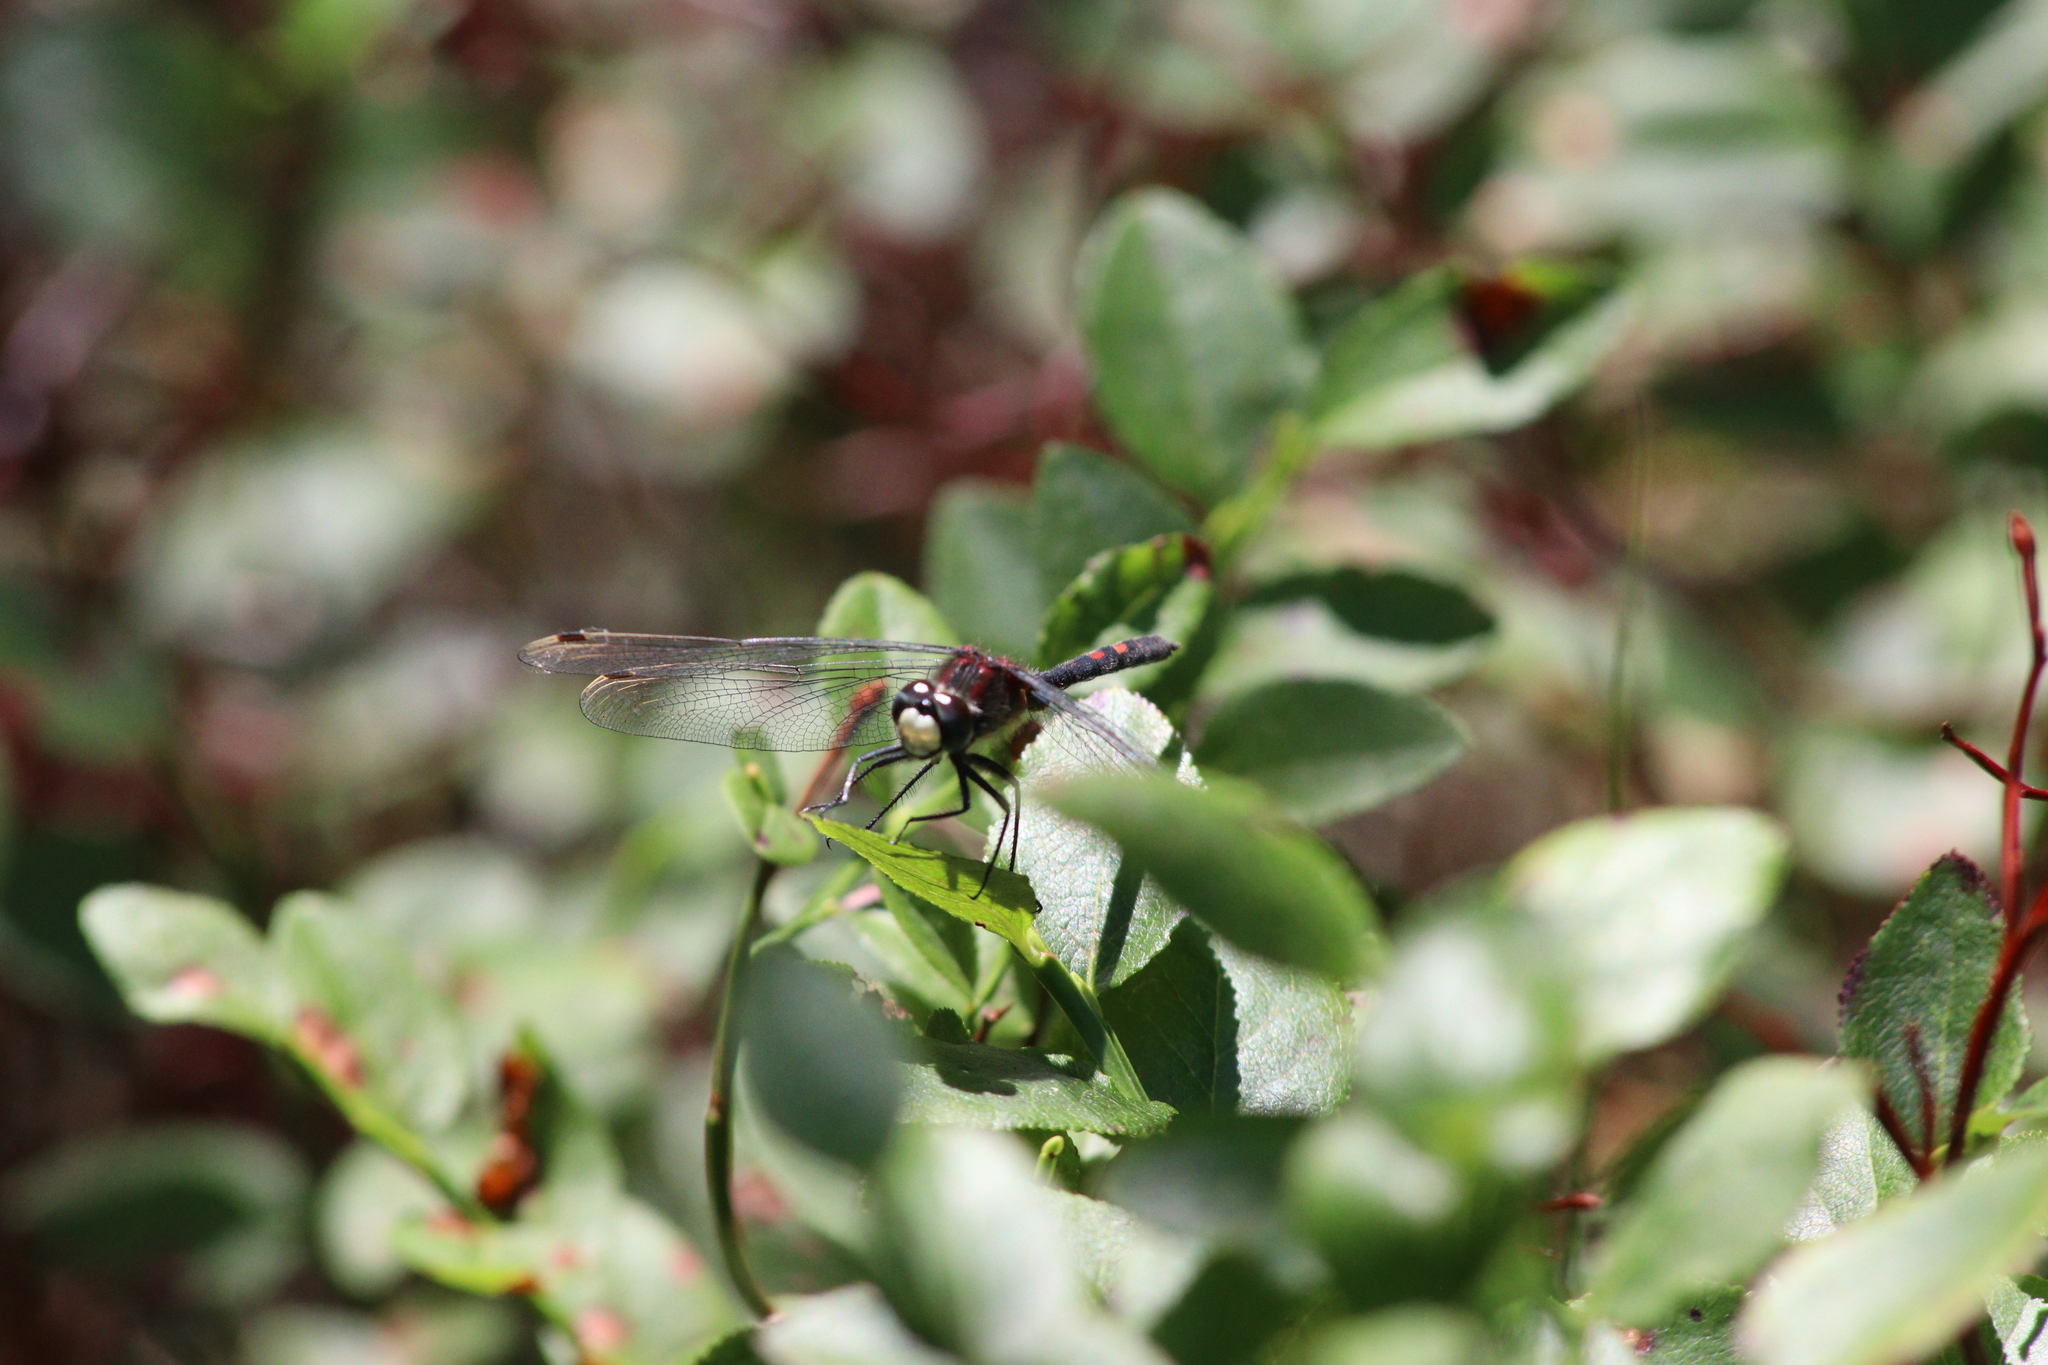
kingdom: Animalia
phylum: Arthropoda
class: Insecta
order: Odonata
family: Libellulidae
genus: Leucorrhinia
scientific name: Leucorrhinia dubia
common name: White-faced darter
